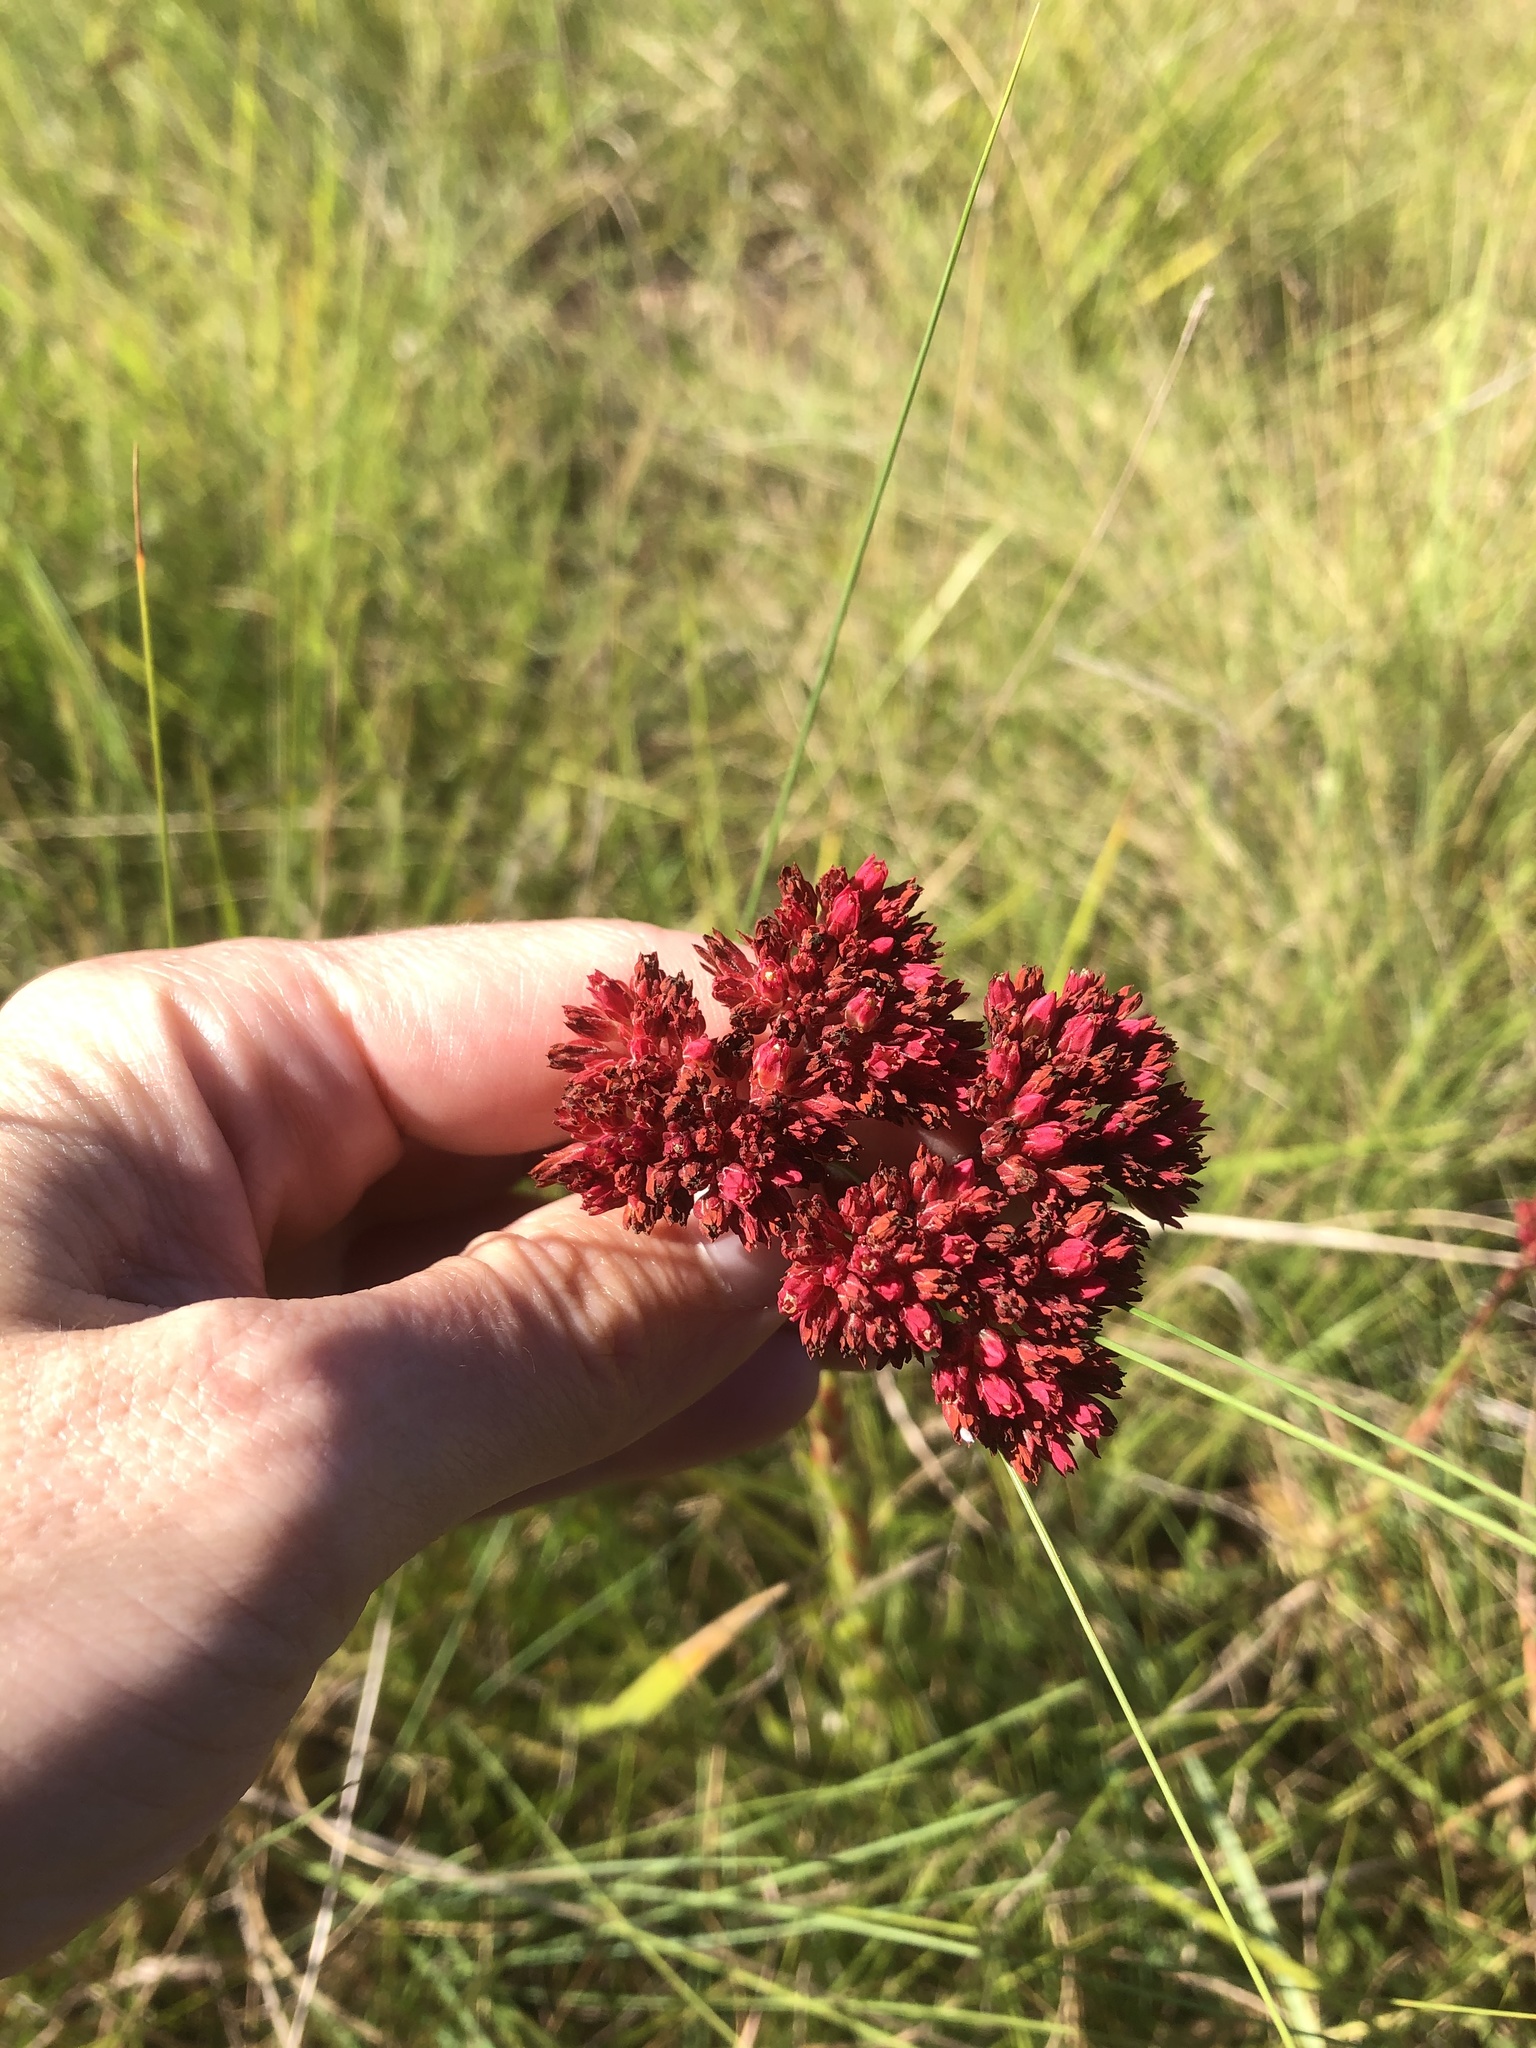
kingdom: Plantae
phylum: Tracheophyta
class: Magnoliopsida
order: Saxifragales
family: Crassulaceae
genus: Crassula
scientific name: Crassula alba
